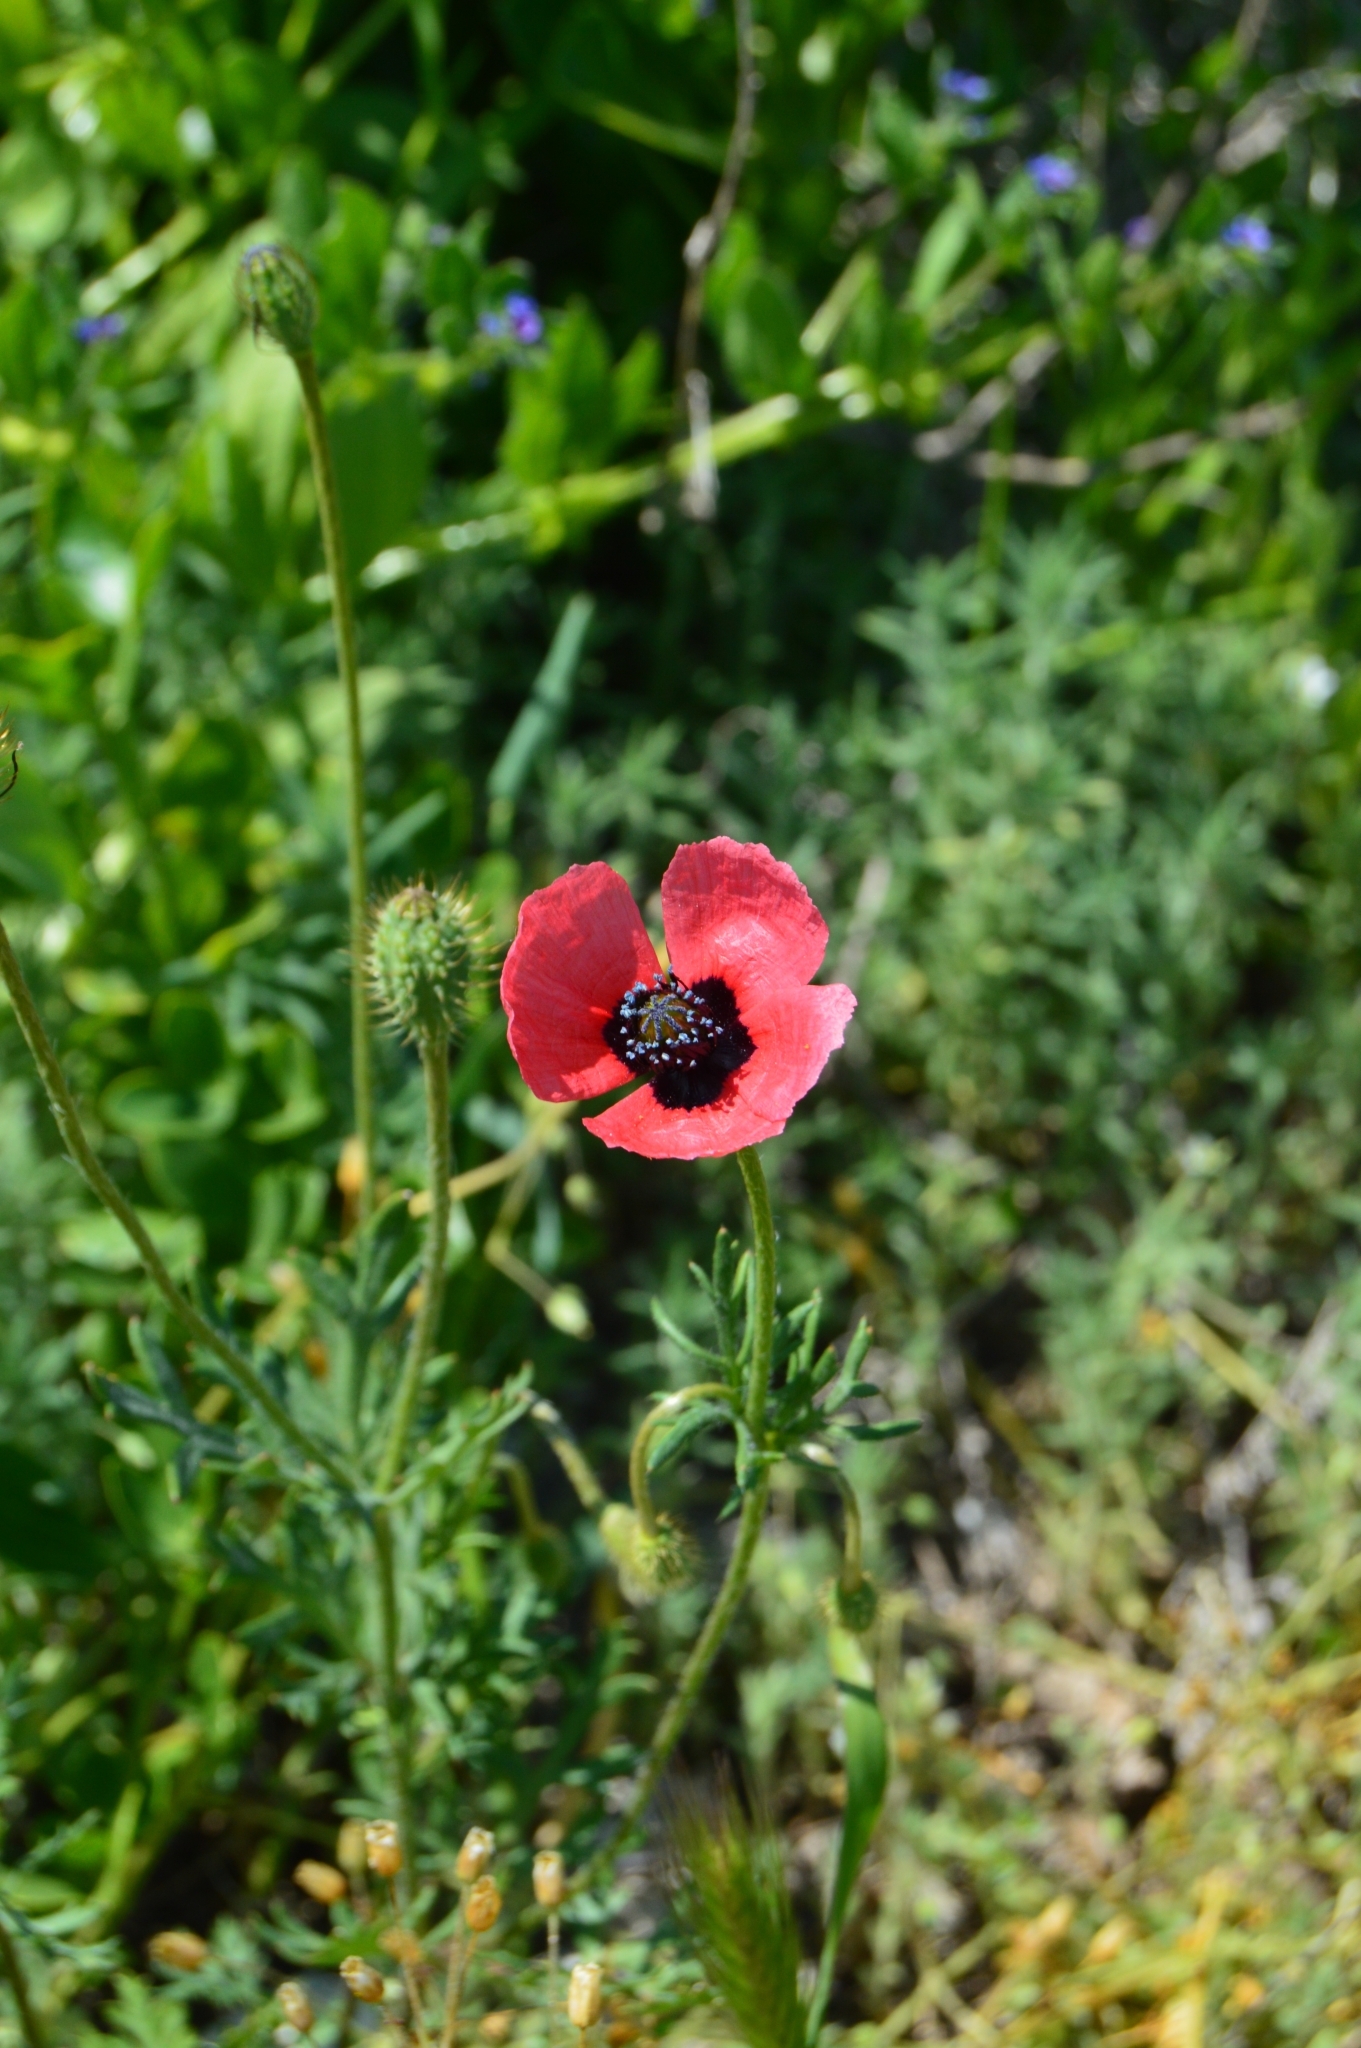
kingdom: Plantae
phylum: Tracheophyta
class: Magnoliopsida
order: Ranunculales
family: Papaveraceae
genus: Roemeria
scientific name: Roemeria hispida
